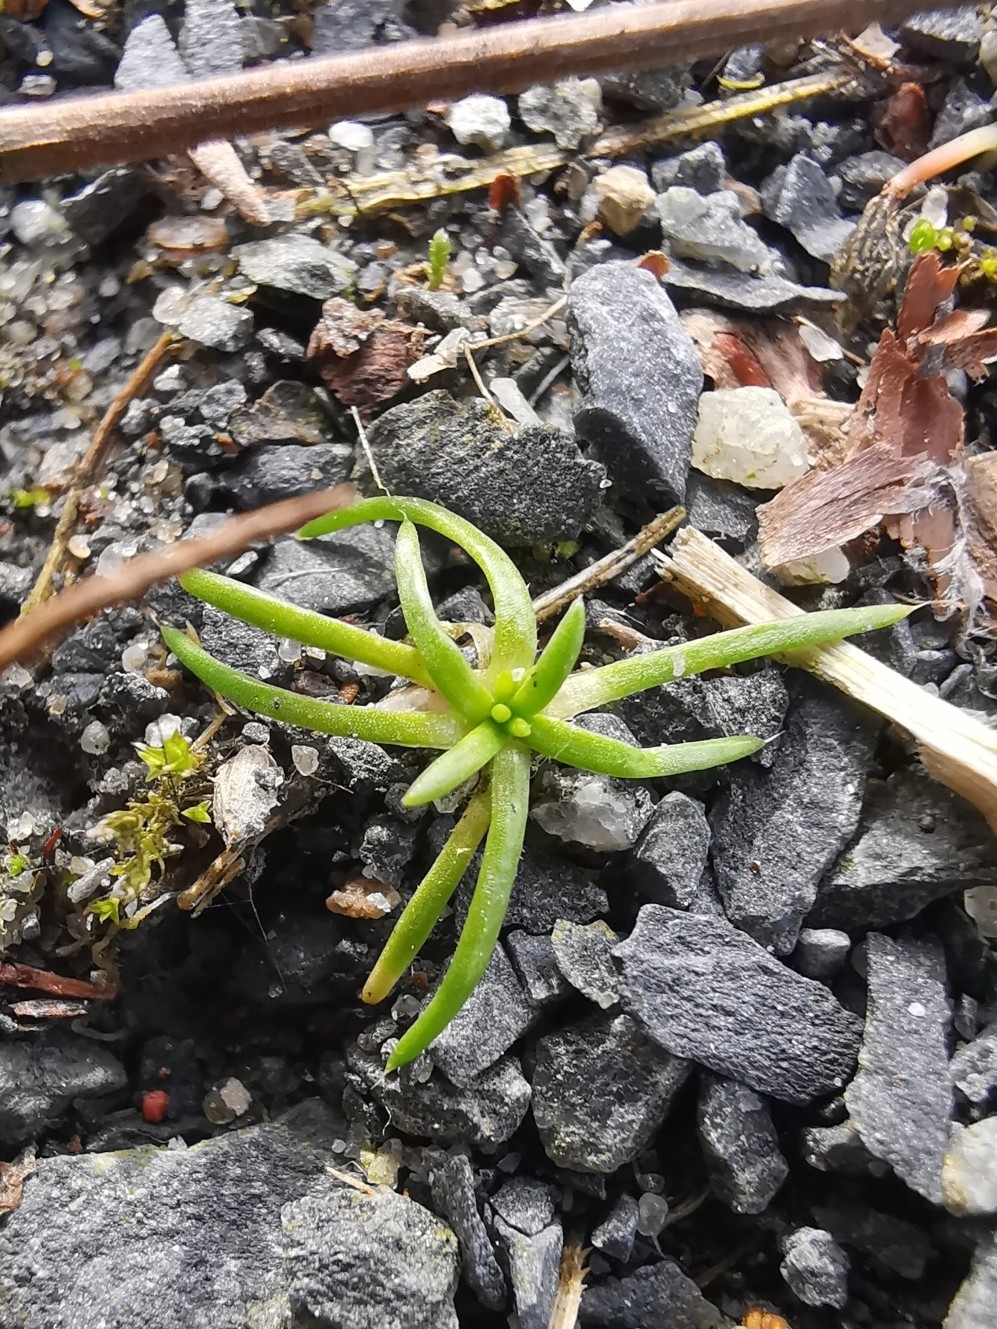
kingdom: Plantae
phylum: Tracheophyta
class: Magnoliopsida
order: Caryophyllales
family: Caryophyllaceae
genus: Sagina
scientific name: Sagina procumbens
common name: Procumbent pearlwort
